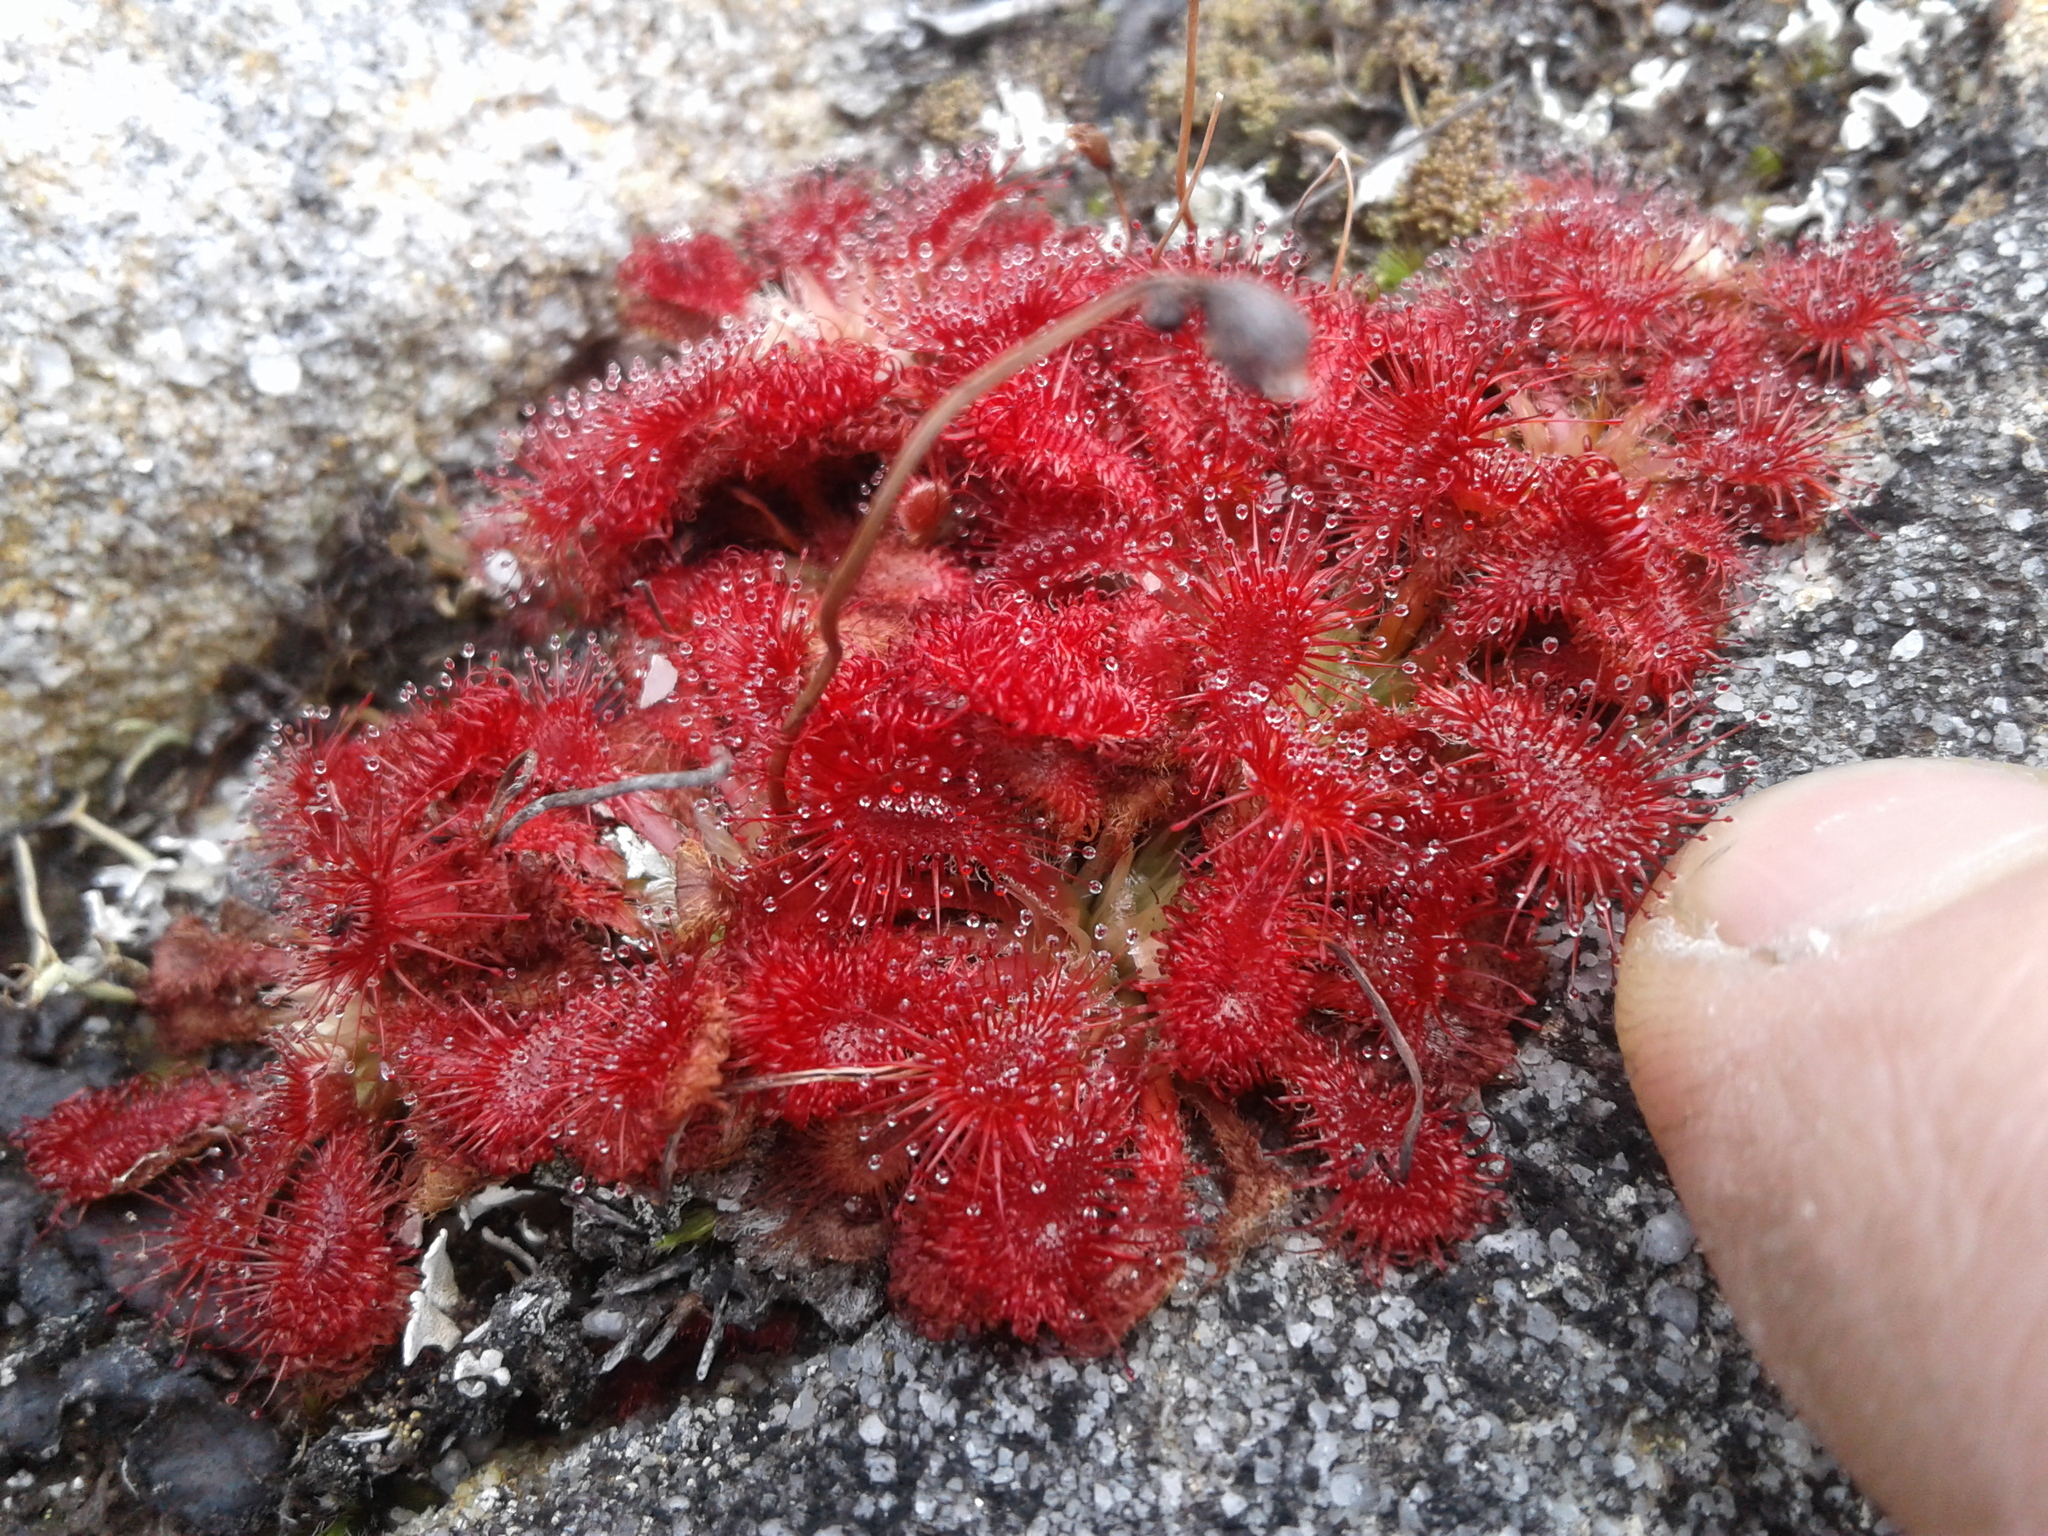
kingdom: Plantae
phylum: Tracheophyta
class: Magnoliopsida
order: Caryophyllales
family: Droseraceae
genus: Drosera
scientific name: Drosera spatulata
